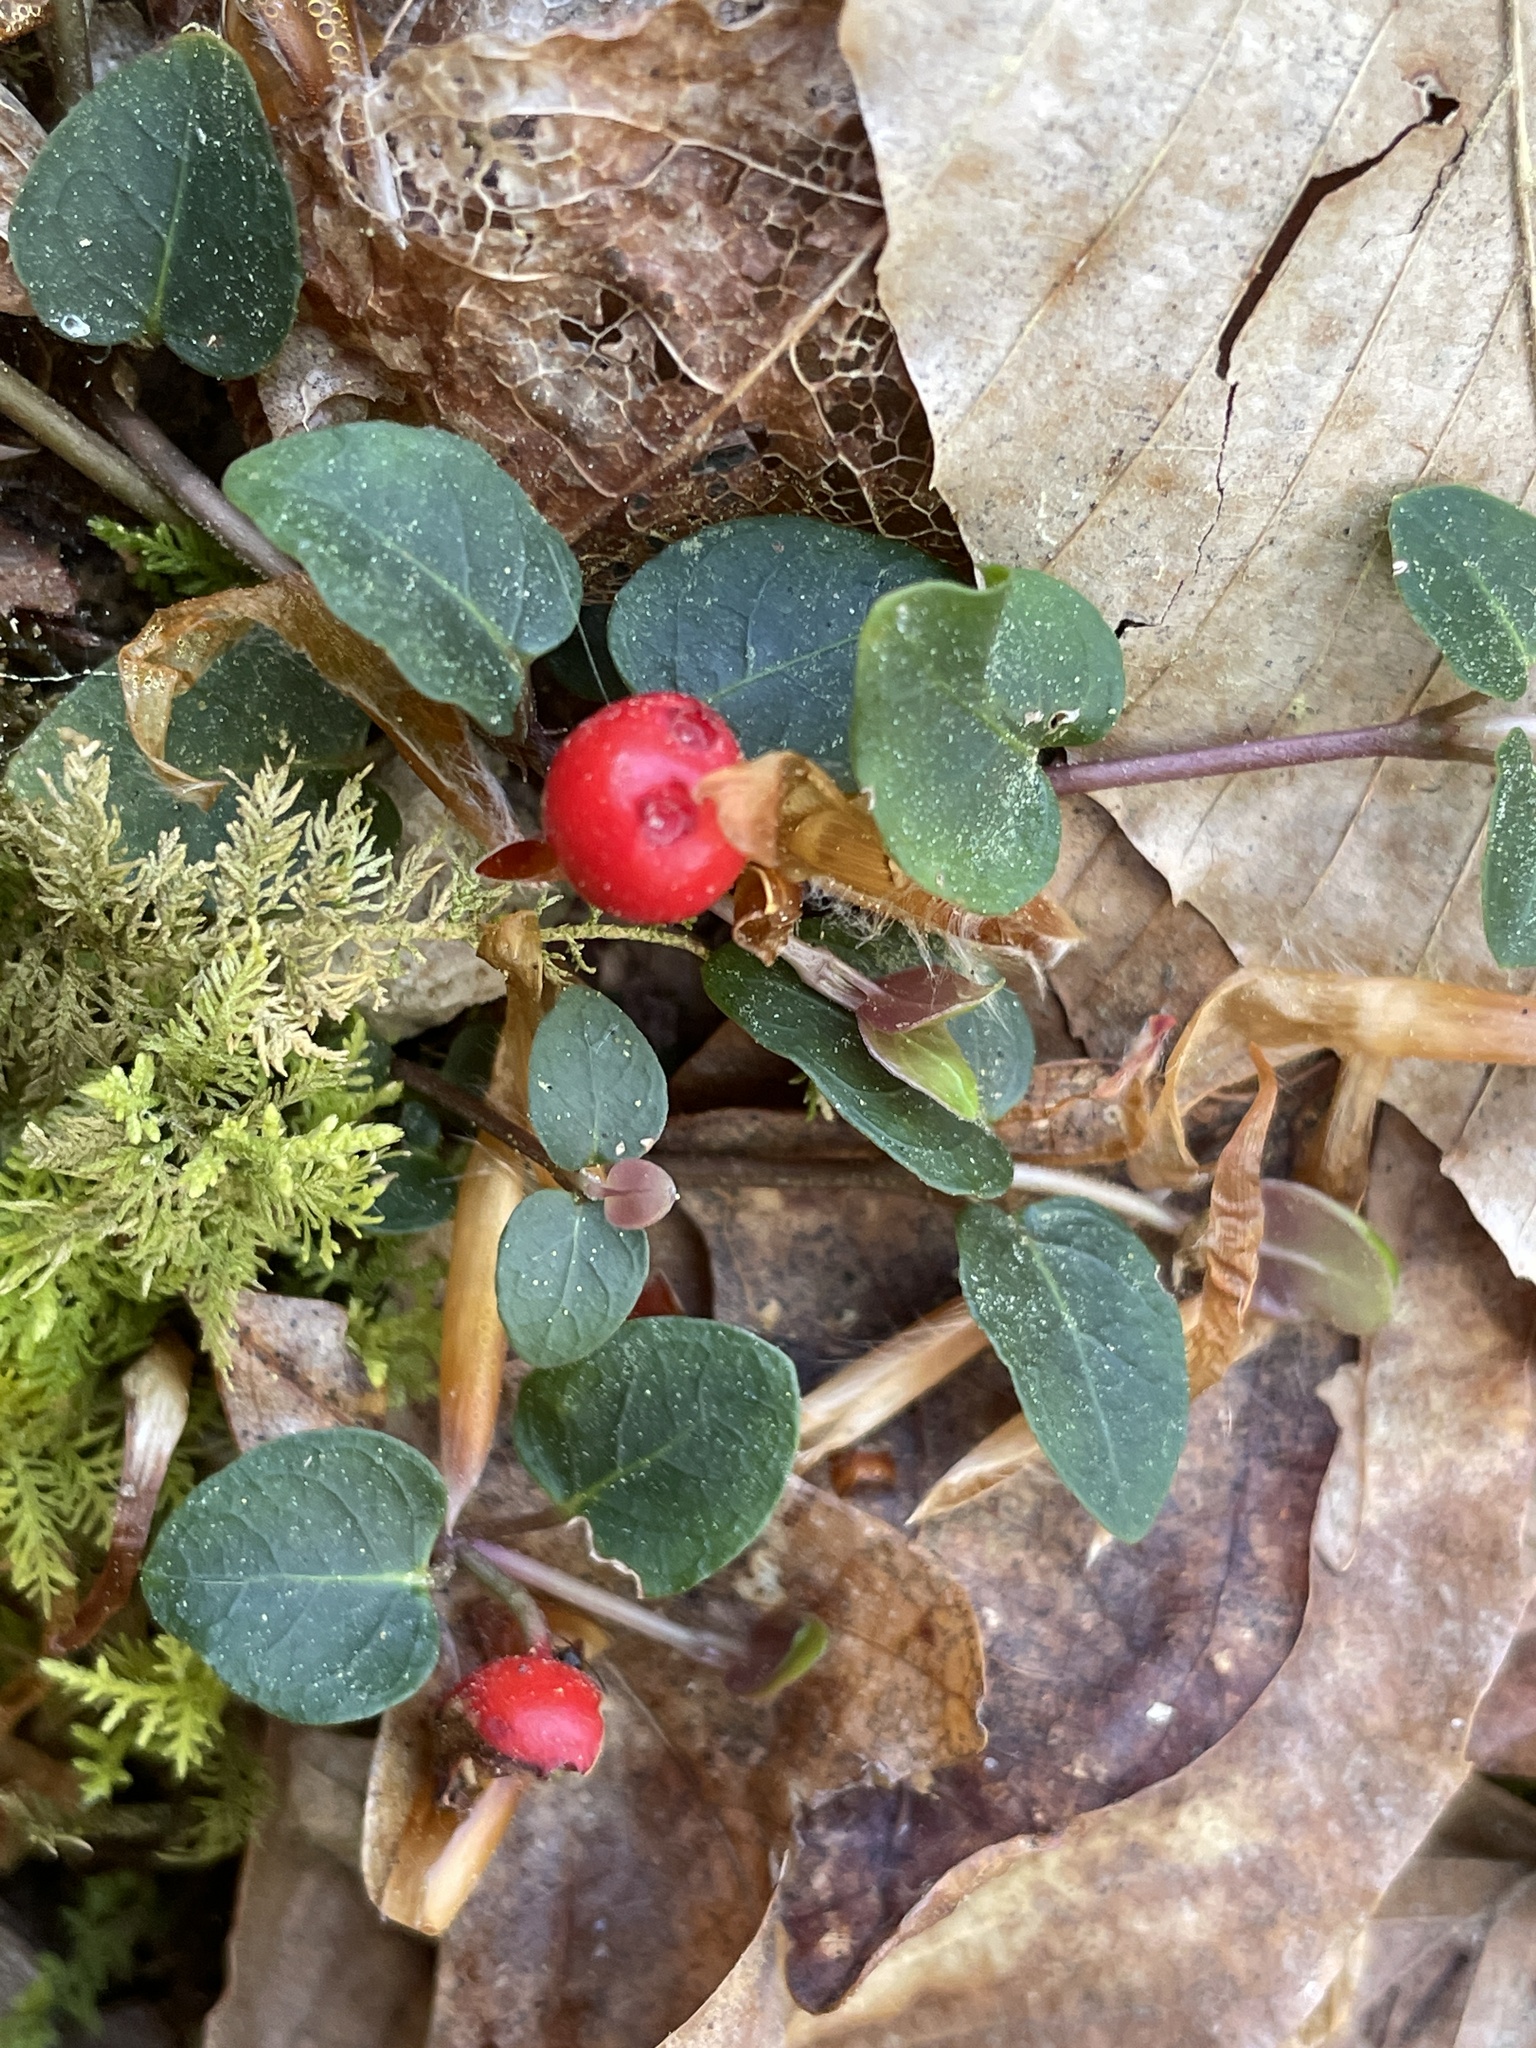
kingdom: Plantae
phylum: Tracheophyta
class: Magnoliopsida
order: Gentianales
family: Rubiaceae
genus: Mitchella
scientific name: Mitchella repens
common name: Partridge-berry
